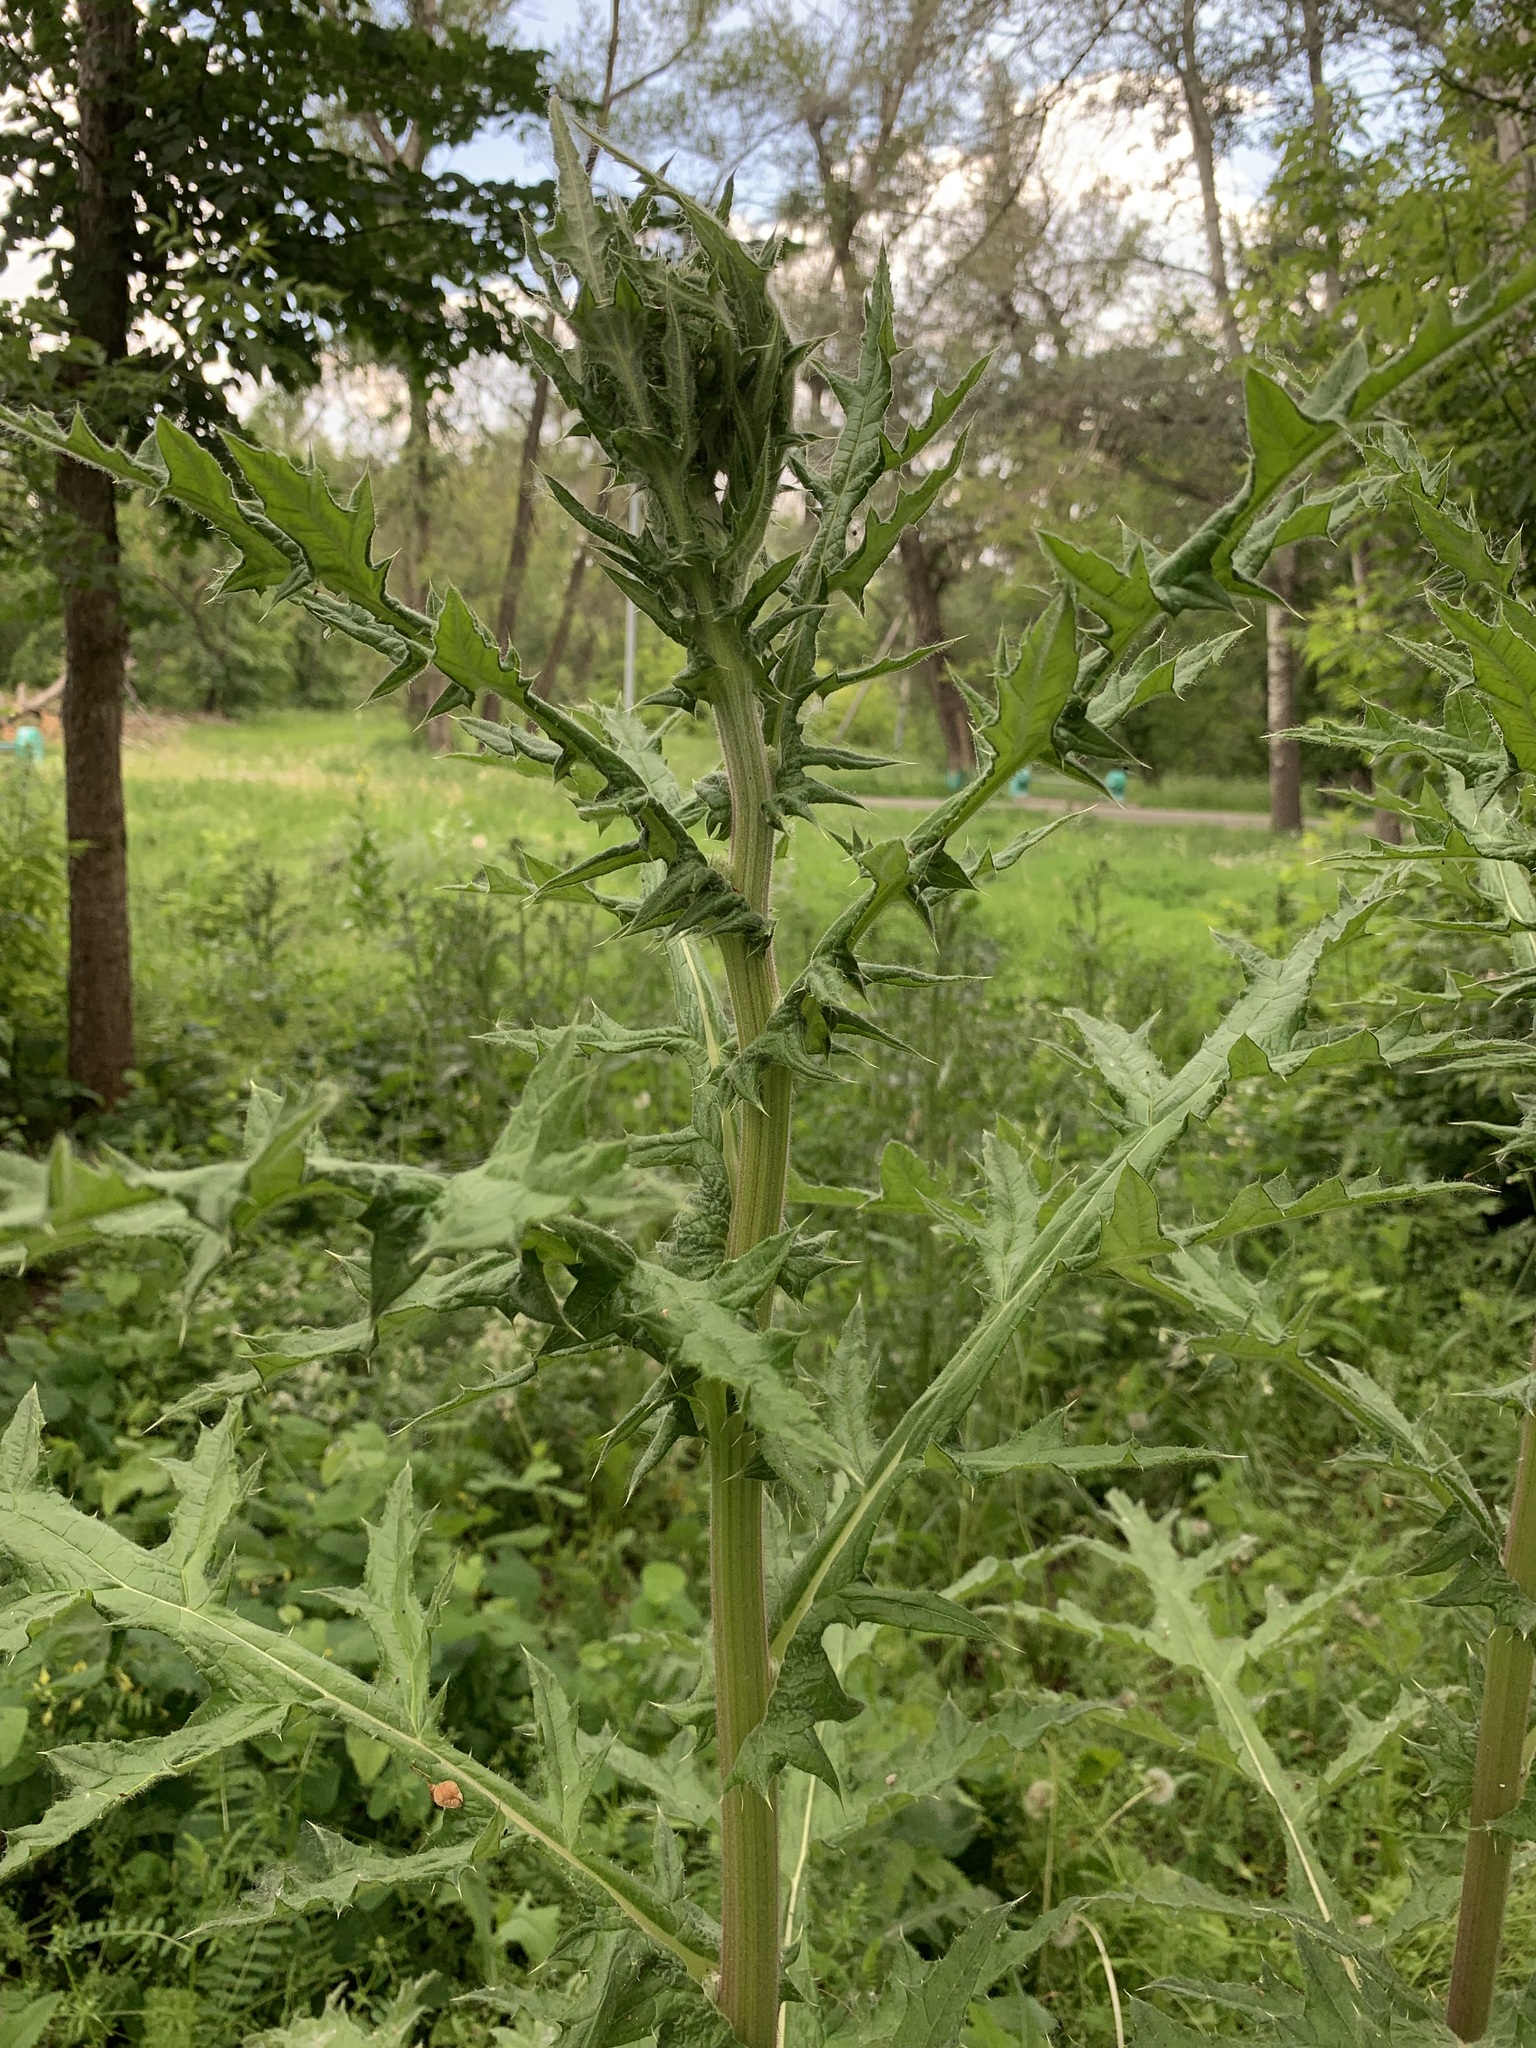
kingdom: Plantae
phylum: Tracheophyta
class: Magnoliopsida
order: Asterales
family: Asteraceae
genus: Echinops
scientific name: Echinops sphaerocephalus
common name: Glandular globe-thistle
